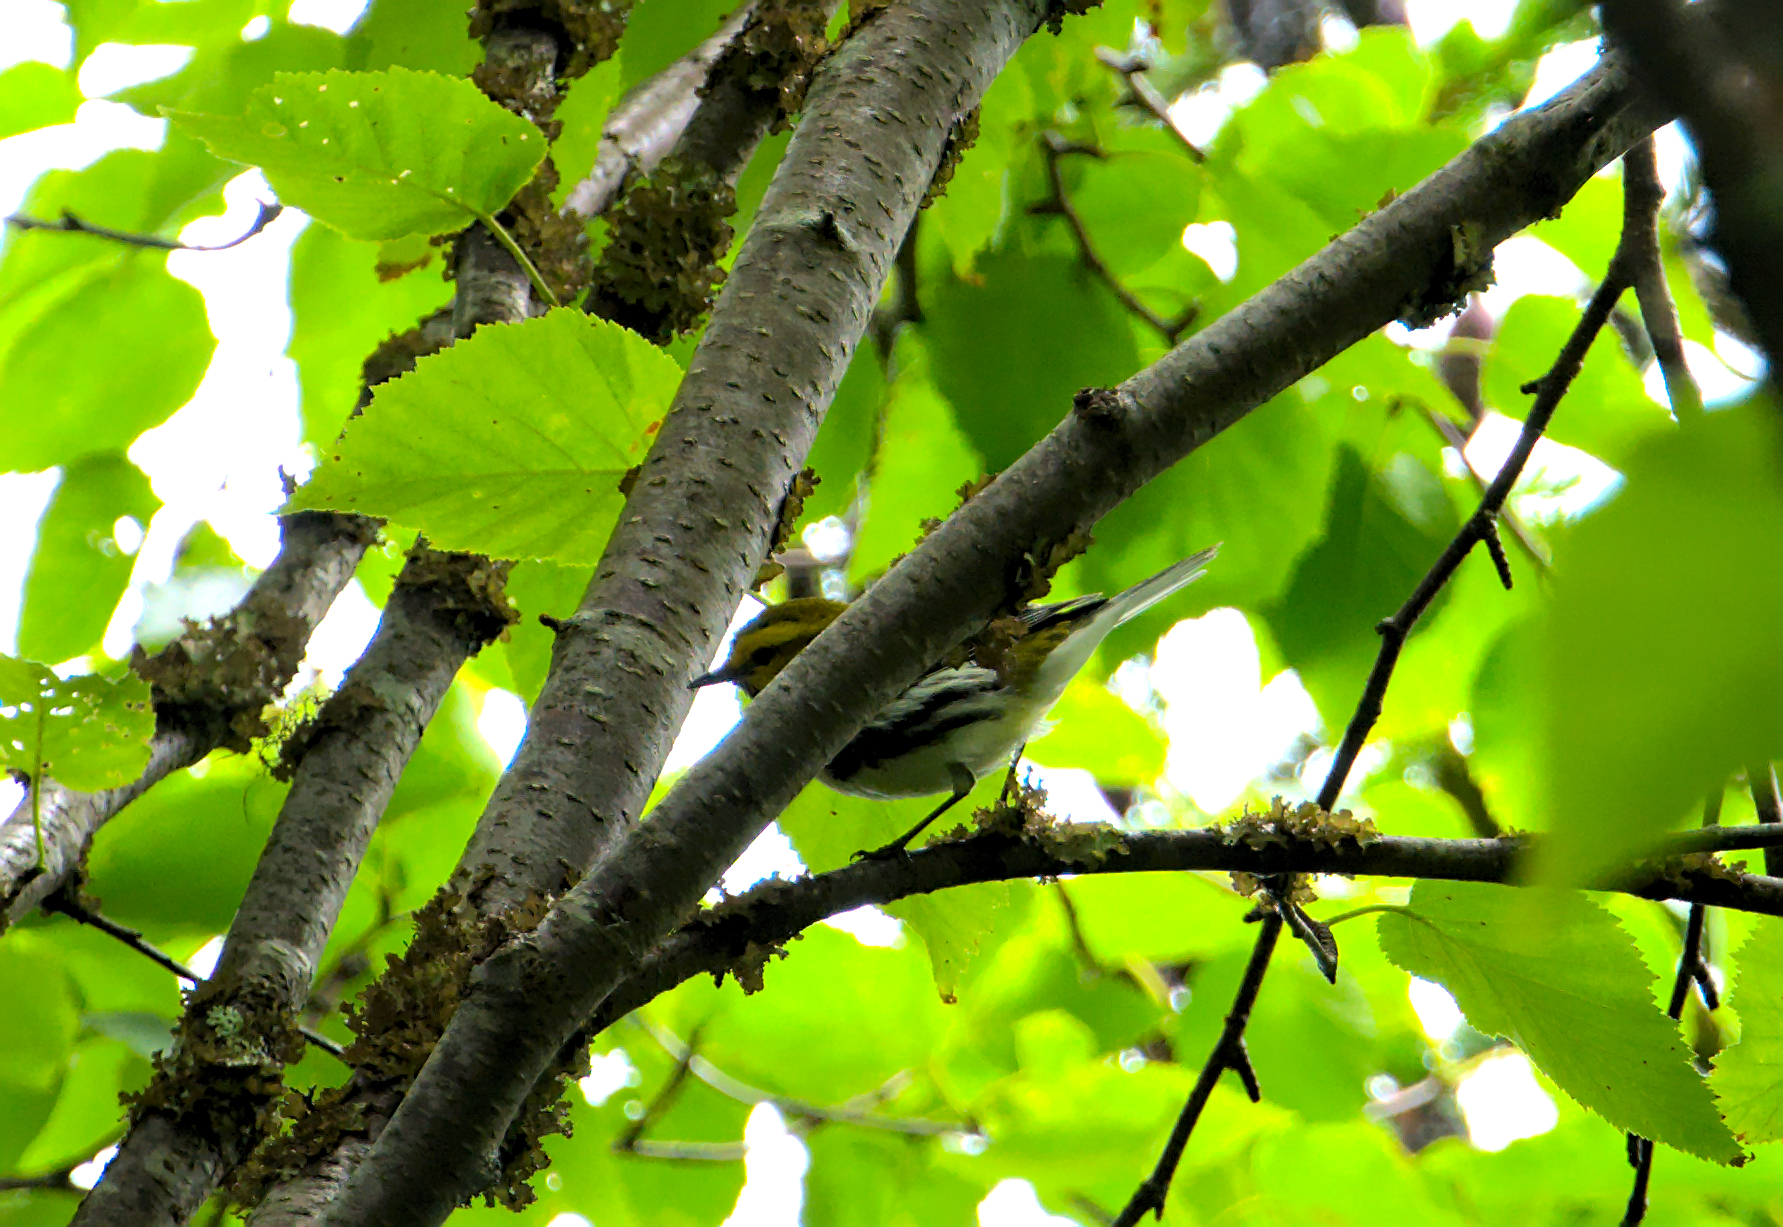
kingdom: Animalia
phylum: Chordata
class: Aves
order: Passeriformes
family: Parulidae
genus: Setophaga
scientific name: Setophaga virens
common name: Black-throated green warbler
